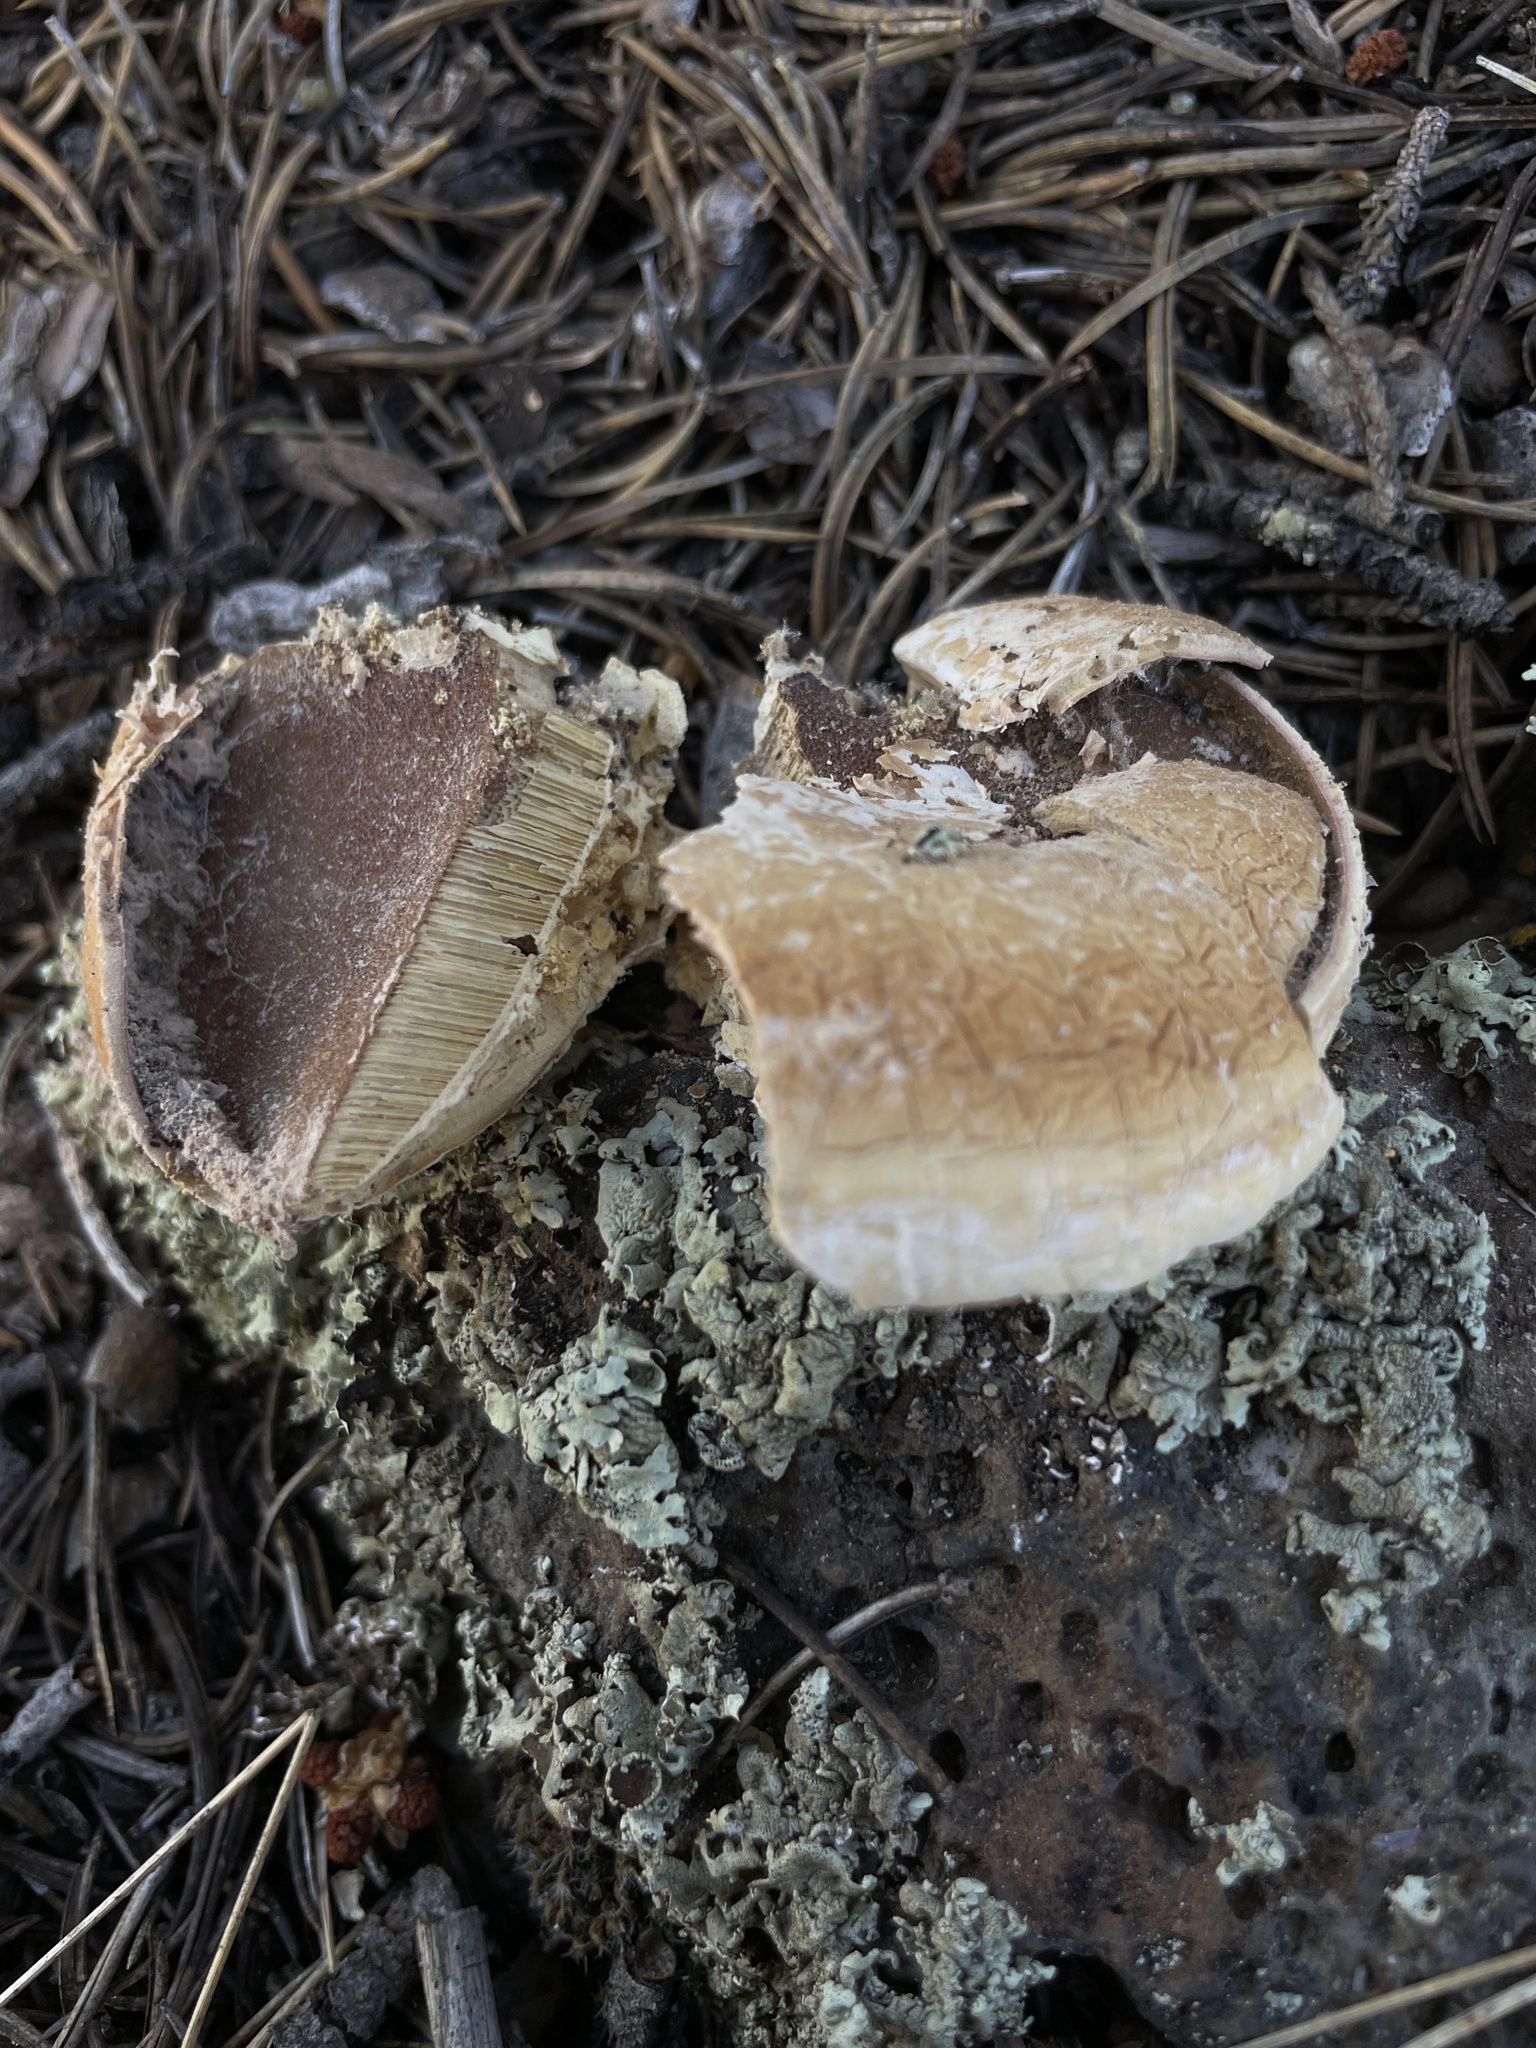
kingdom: Fungi
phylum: Basidiomycota
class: Agaricomycetes
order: Polyporales
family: Polyporaceae
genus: Cryptoporus
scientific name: Cryptoporus volvatus
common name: Veiled polypore
